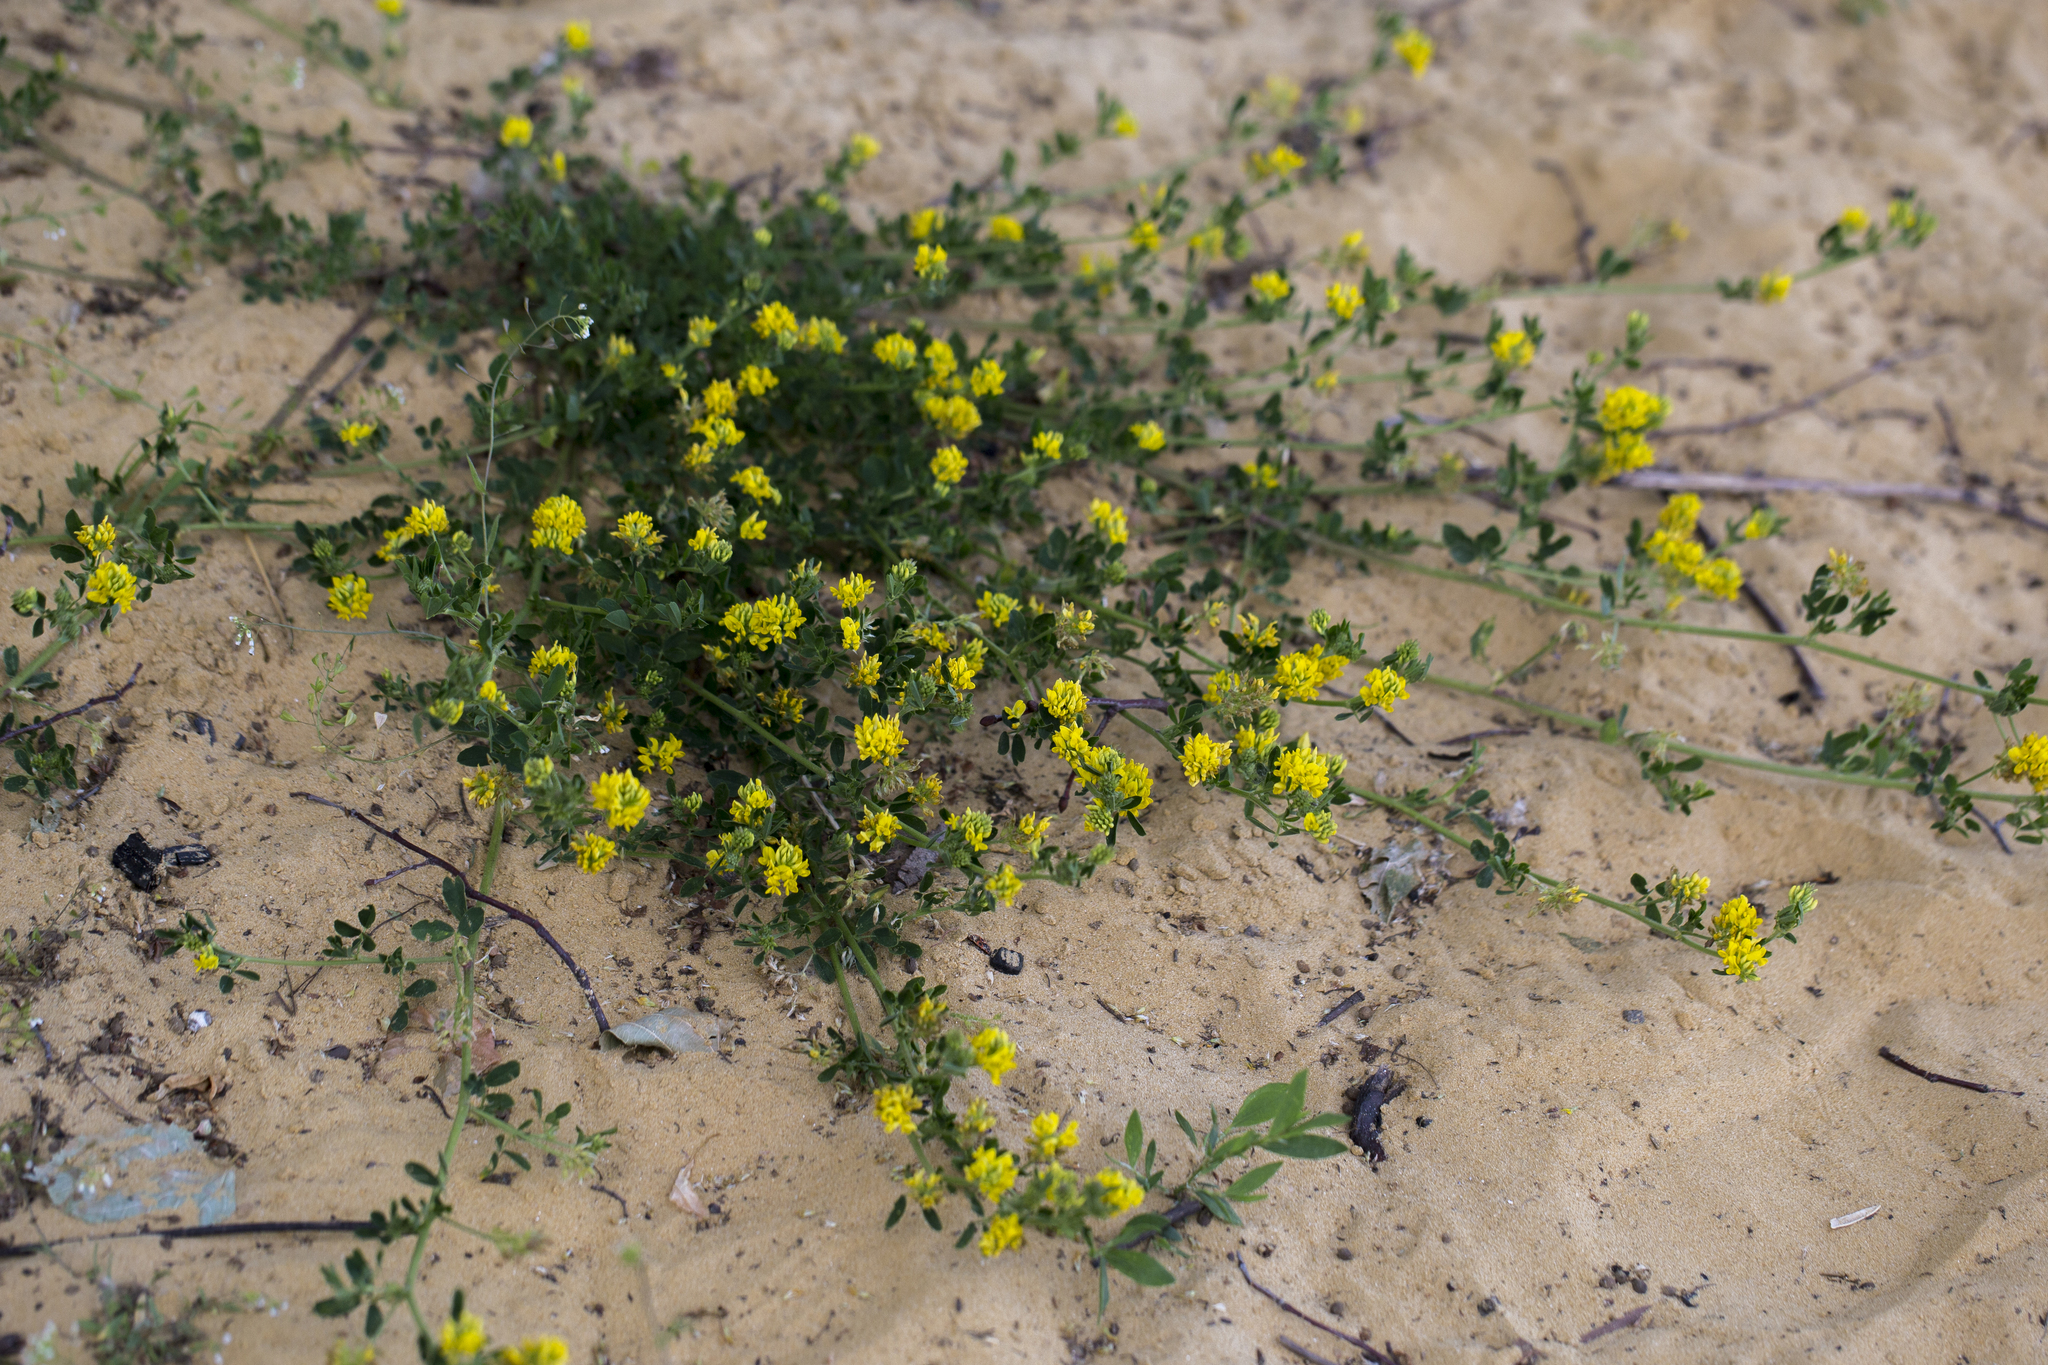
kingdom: Plantae
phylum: Tracheophyta
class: Magnoliopsida
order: Fabales
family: Fabaceae
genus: Medicago
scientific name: Medicago falcata
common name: Sickle medick
